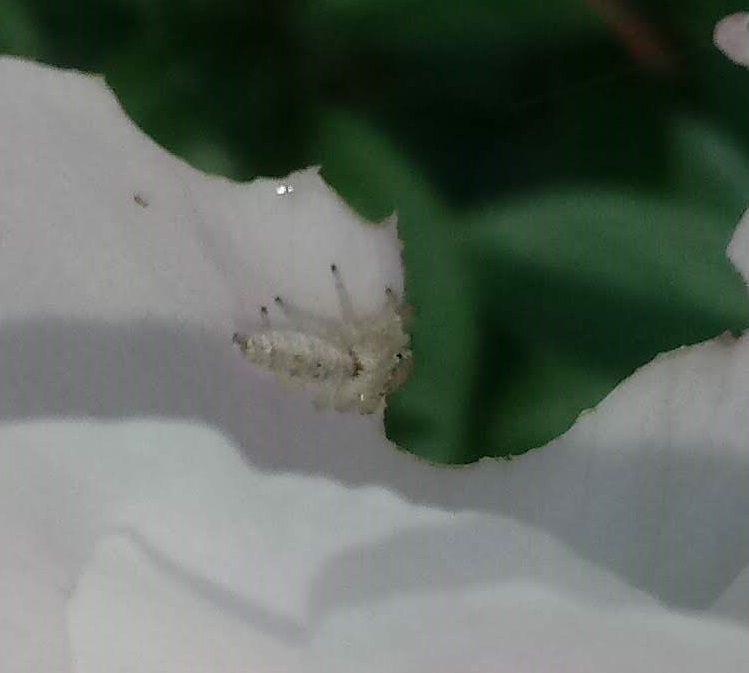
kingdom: Animalia
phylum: Arthropoda
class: Arachnida
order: Araneae
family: Salticidae
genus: Hentzia
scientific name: Hentzia mitrata
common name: White-jawed jumping spider
